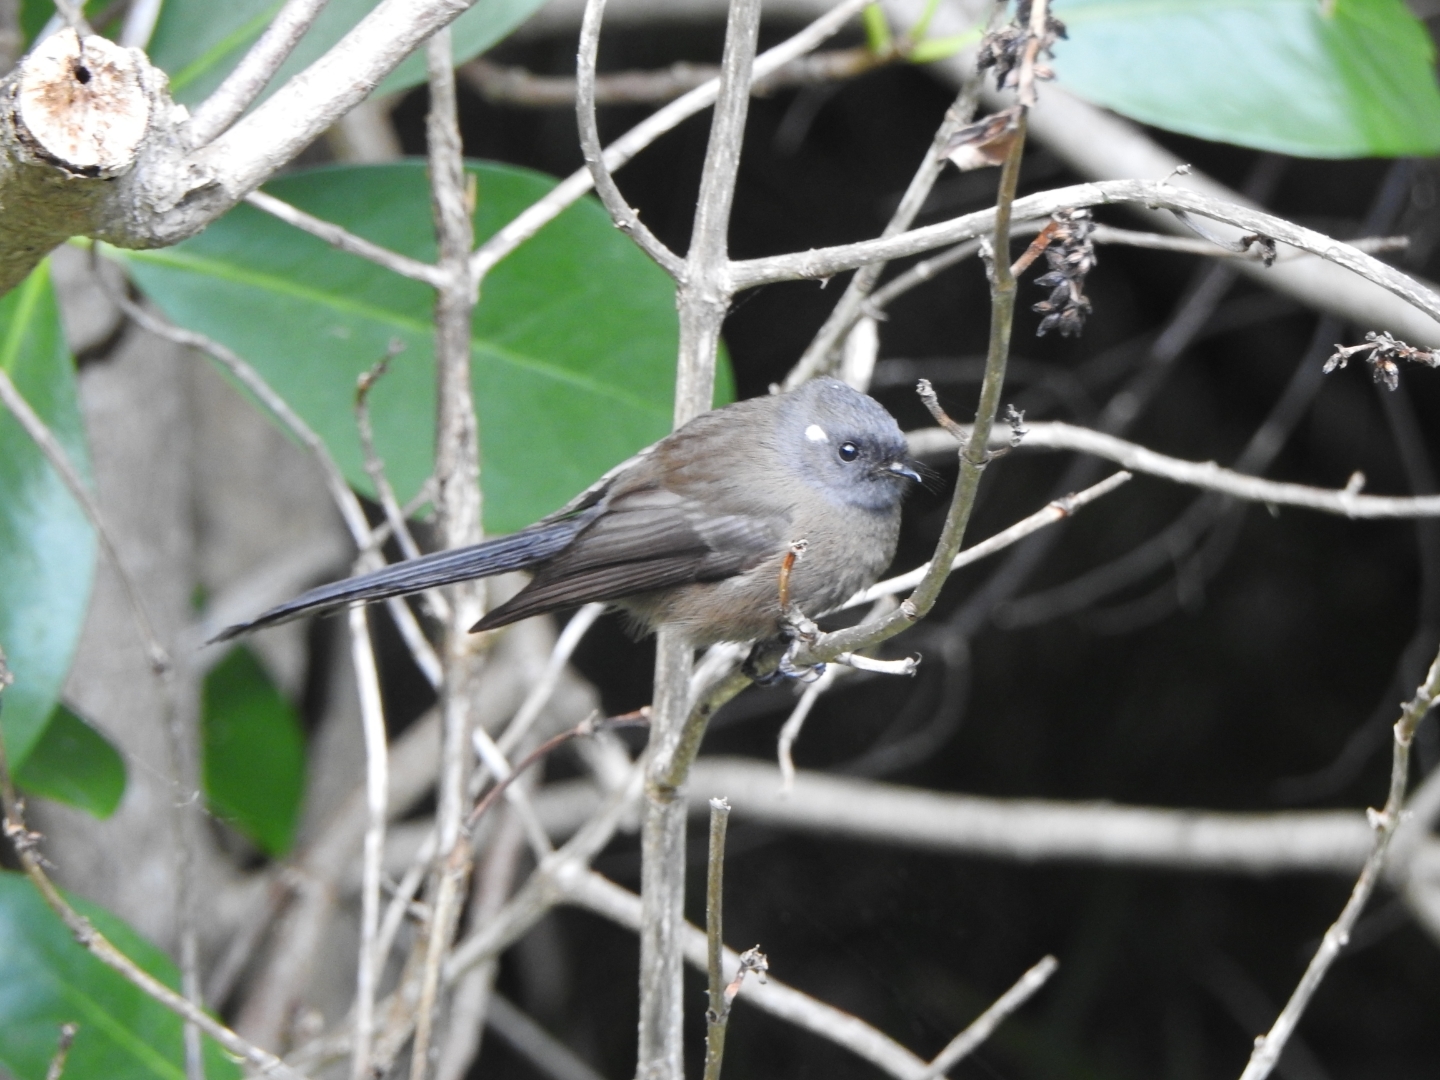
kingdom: Animalia
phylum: Chordata
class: Aves
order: Passeriformes
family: Rhipiduridae
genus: Rhipidura
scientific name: Rhipidura fuliginosa
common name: New zealand fantail
